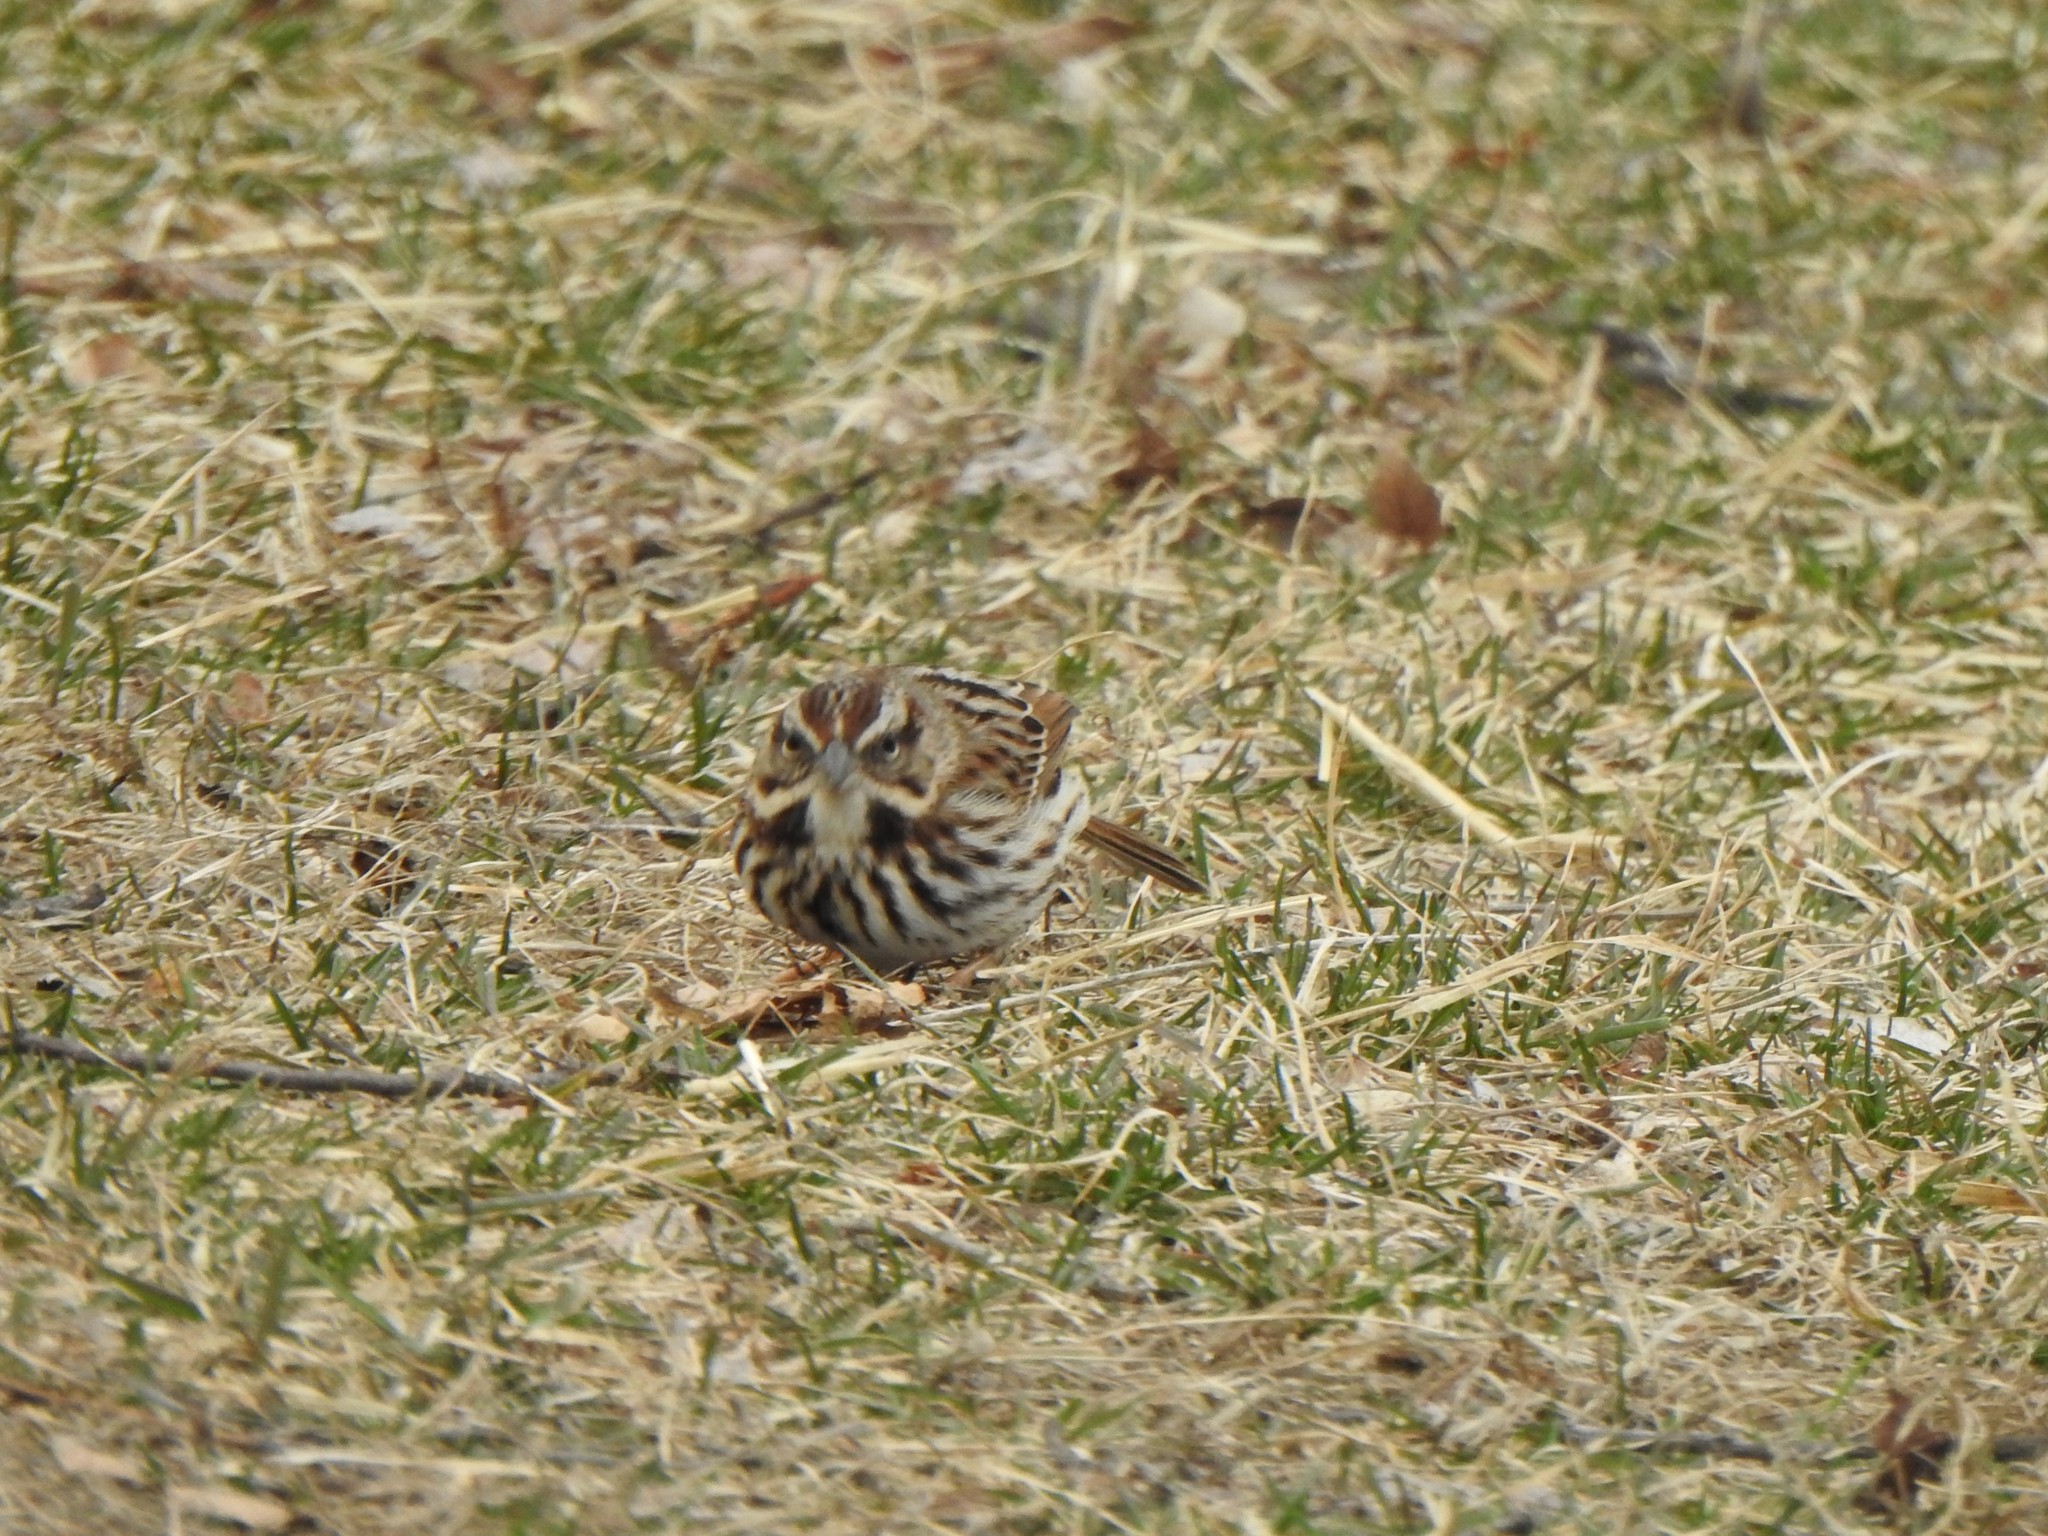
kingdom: Animalia
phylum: Chordata
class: Aves
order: Passeriformes
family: Passerellidae
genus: Melospiza
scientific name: Melospiza melodia
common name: Song sparrow
